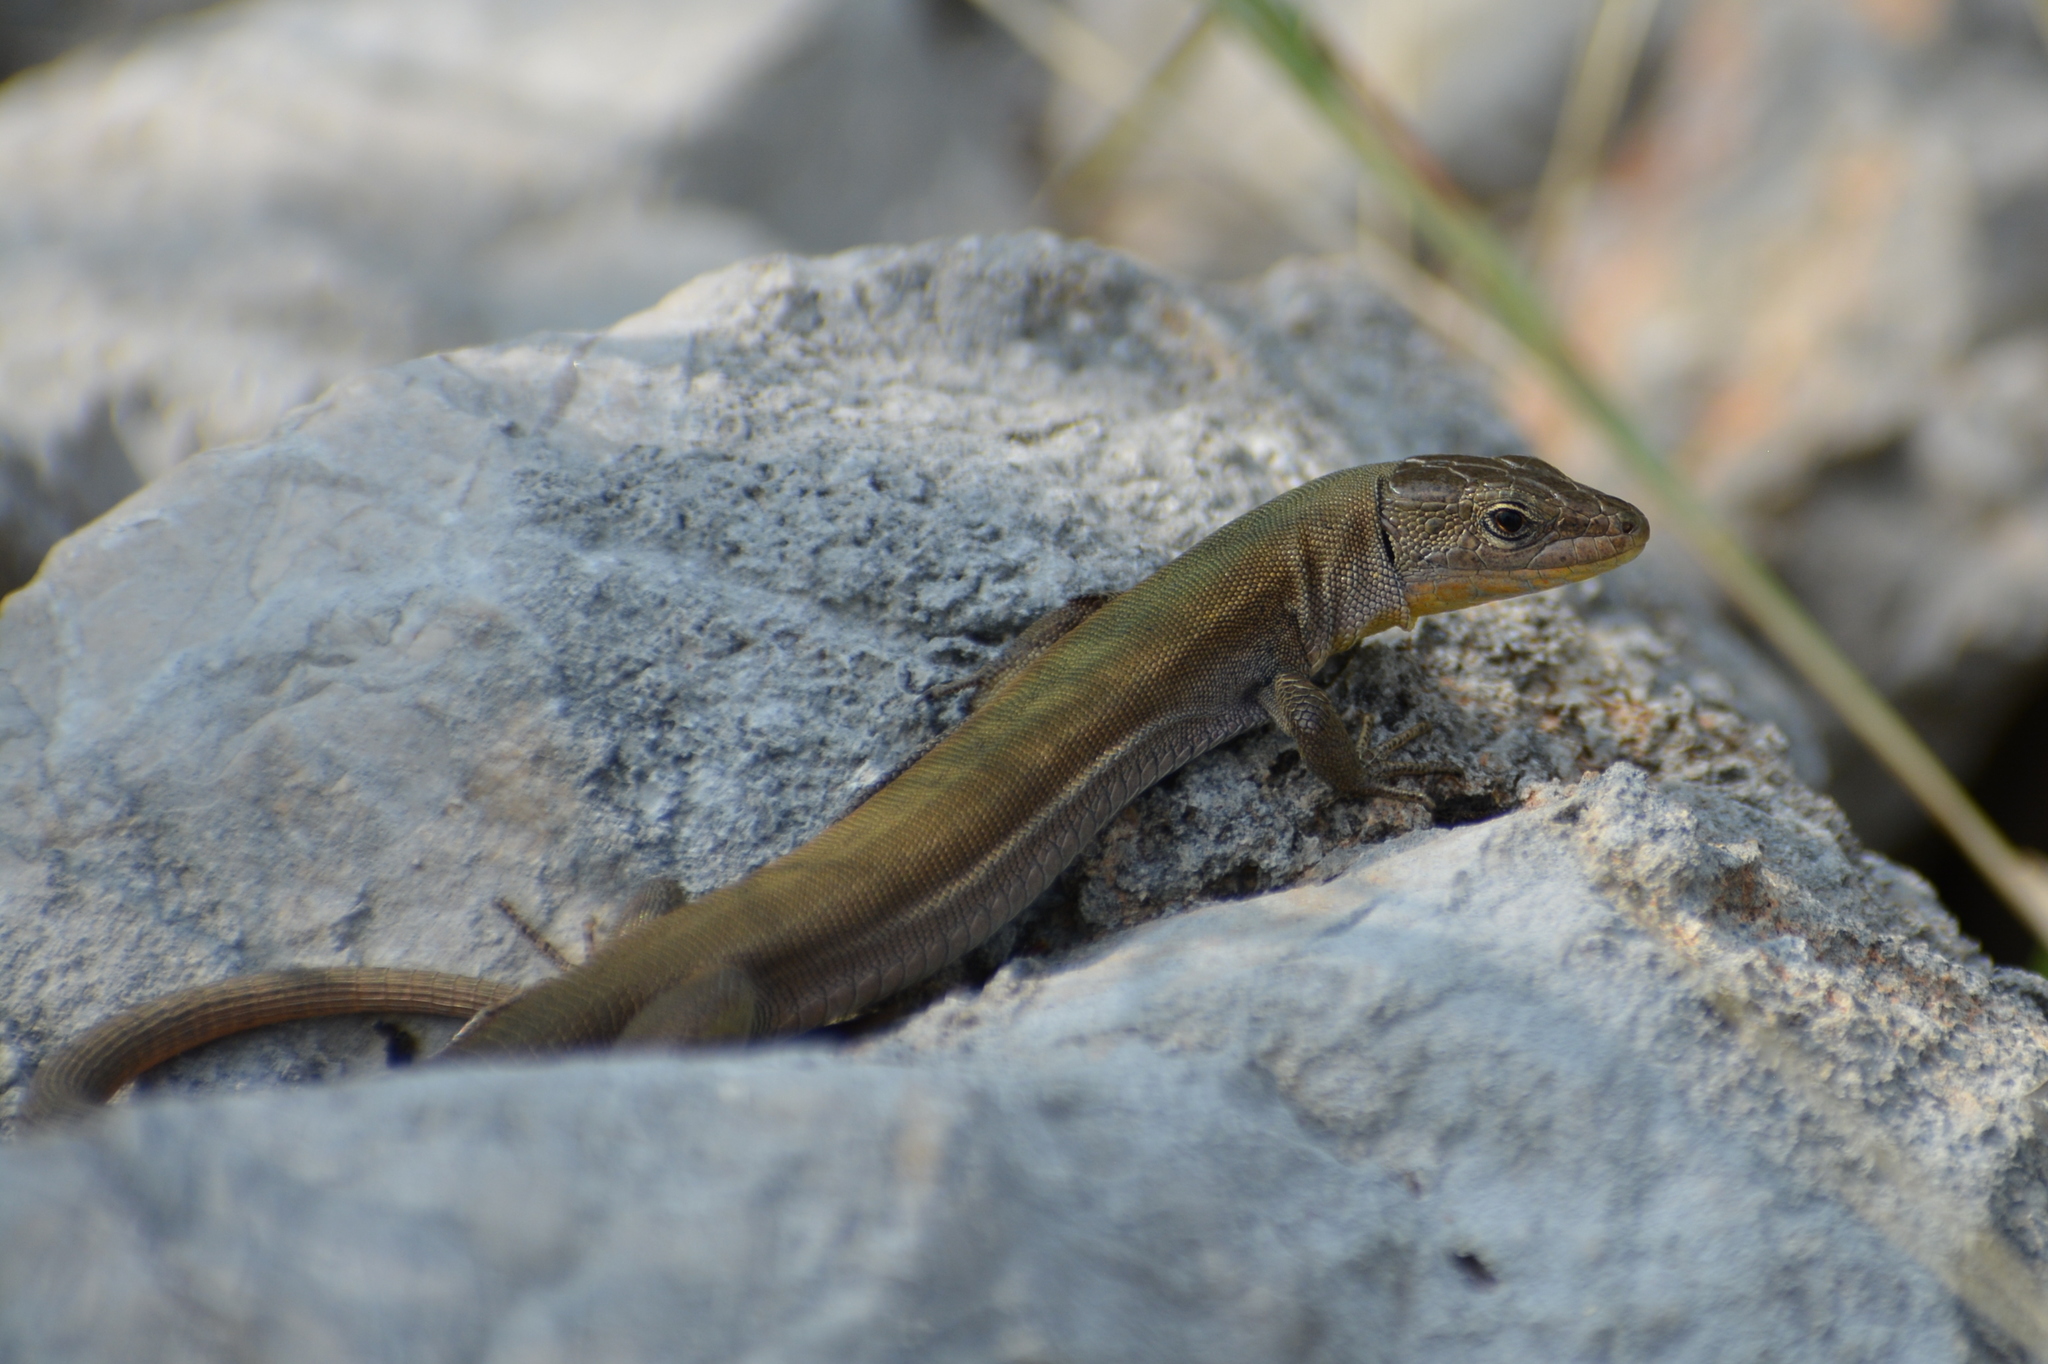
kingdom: Animalia
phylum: Chordata
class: Squamata
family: Lacertidae
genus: Podarcis
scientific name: Podarcis melisellensis
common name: Dalmatian wall lizard
